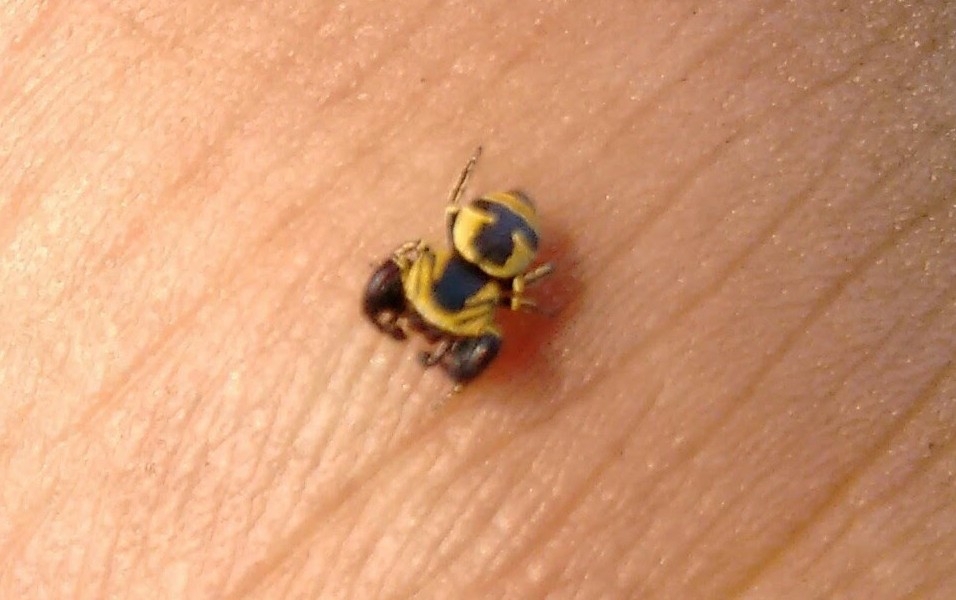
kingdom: Animalia
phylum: Arthropoda
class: Arachnida
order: Araneae
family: Salticidae
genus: Rhene
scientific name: Rhene flavicomans
